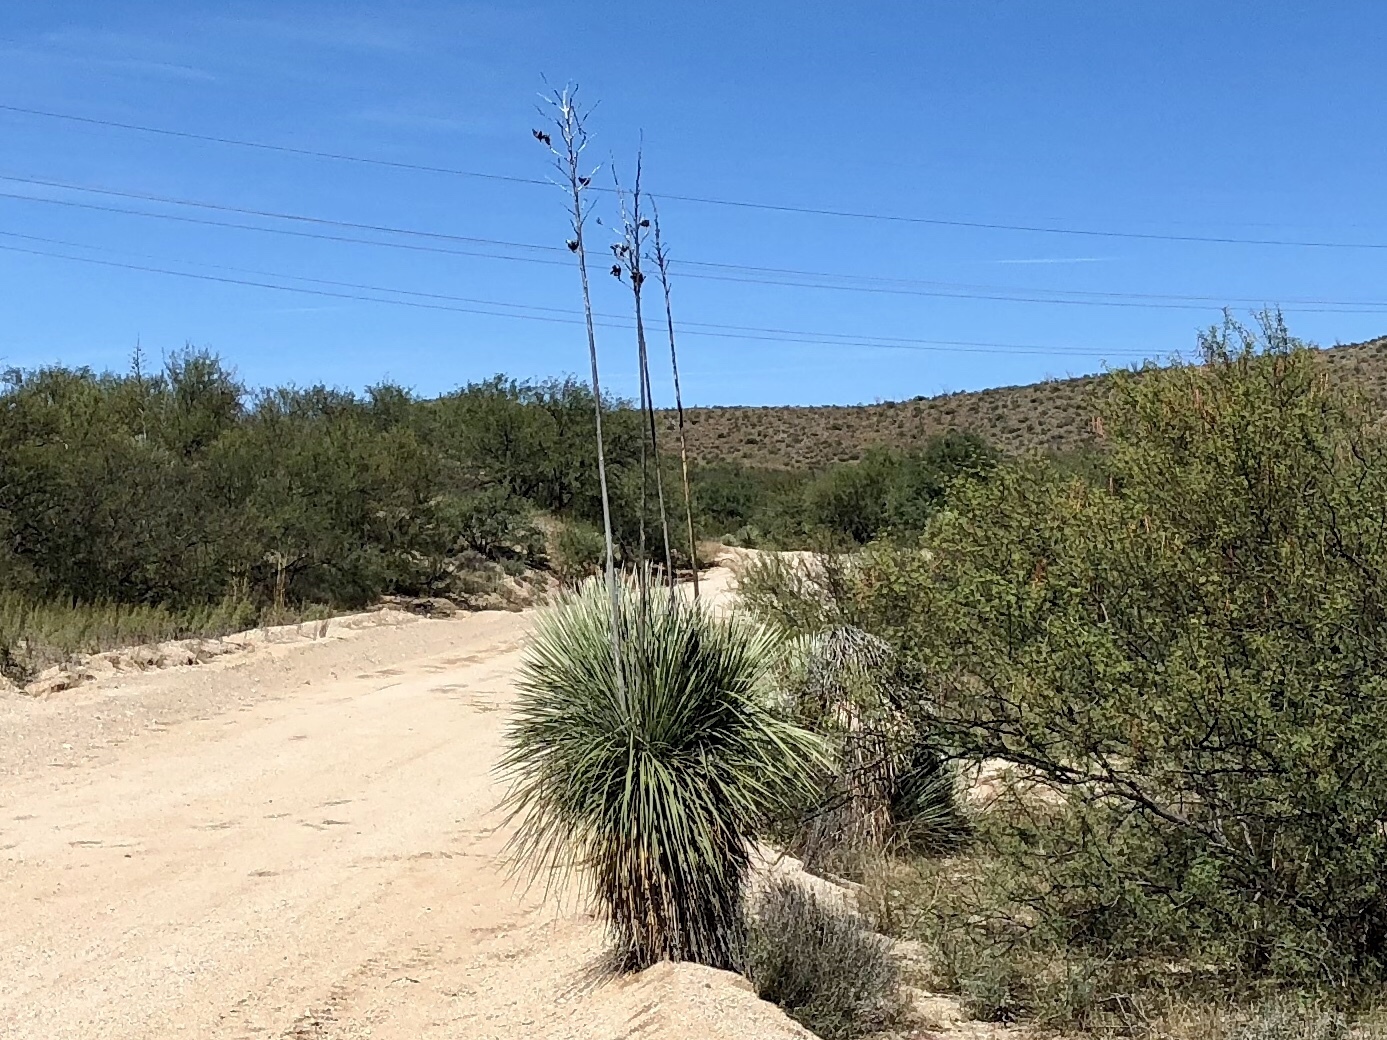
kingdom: Plantae
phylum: Tracheophyta
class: Liliopsida
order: Asparagales
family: Asparagaceae
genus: Yucca
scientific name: Yucca elata
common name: Palmella
